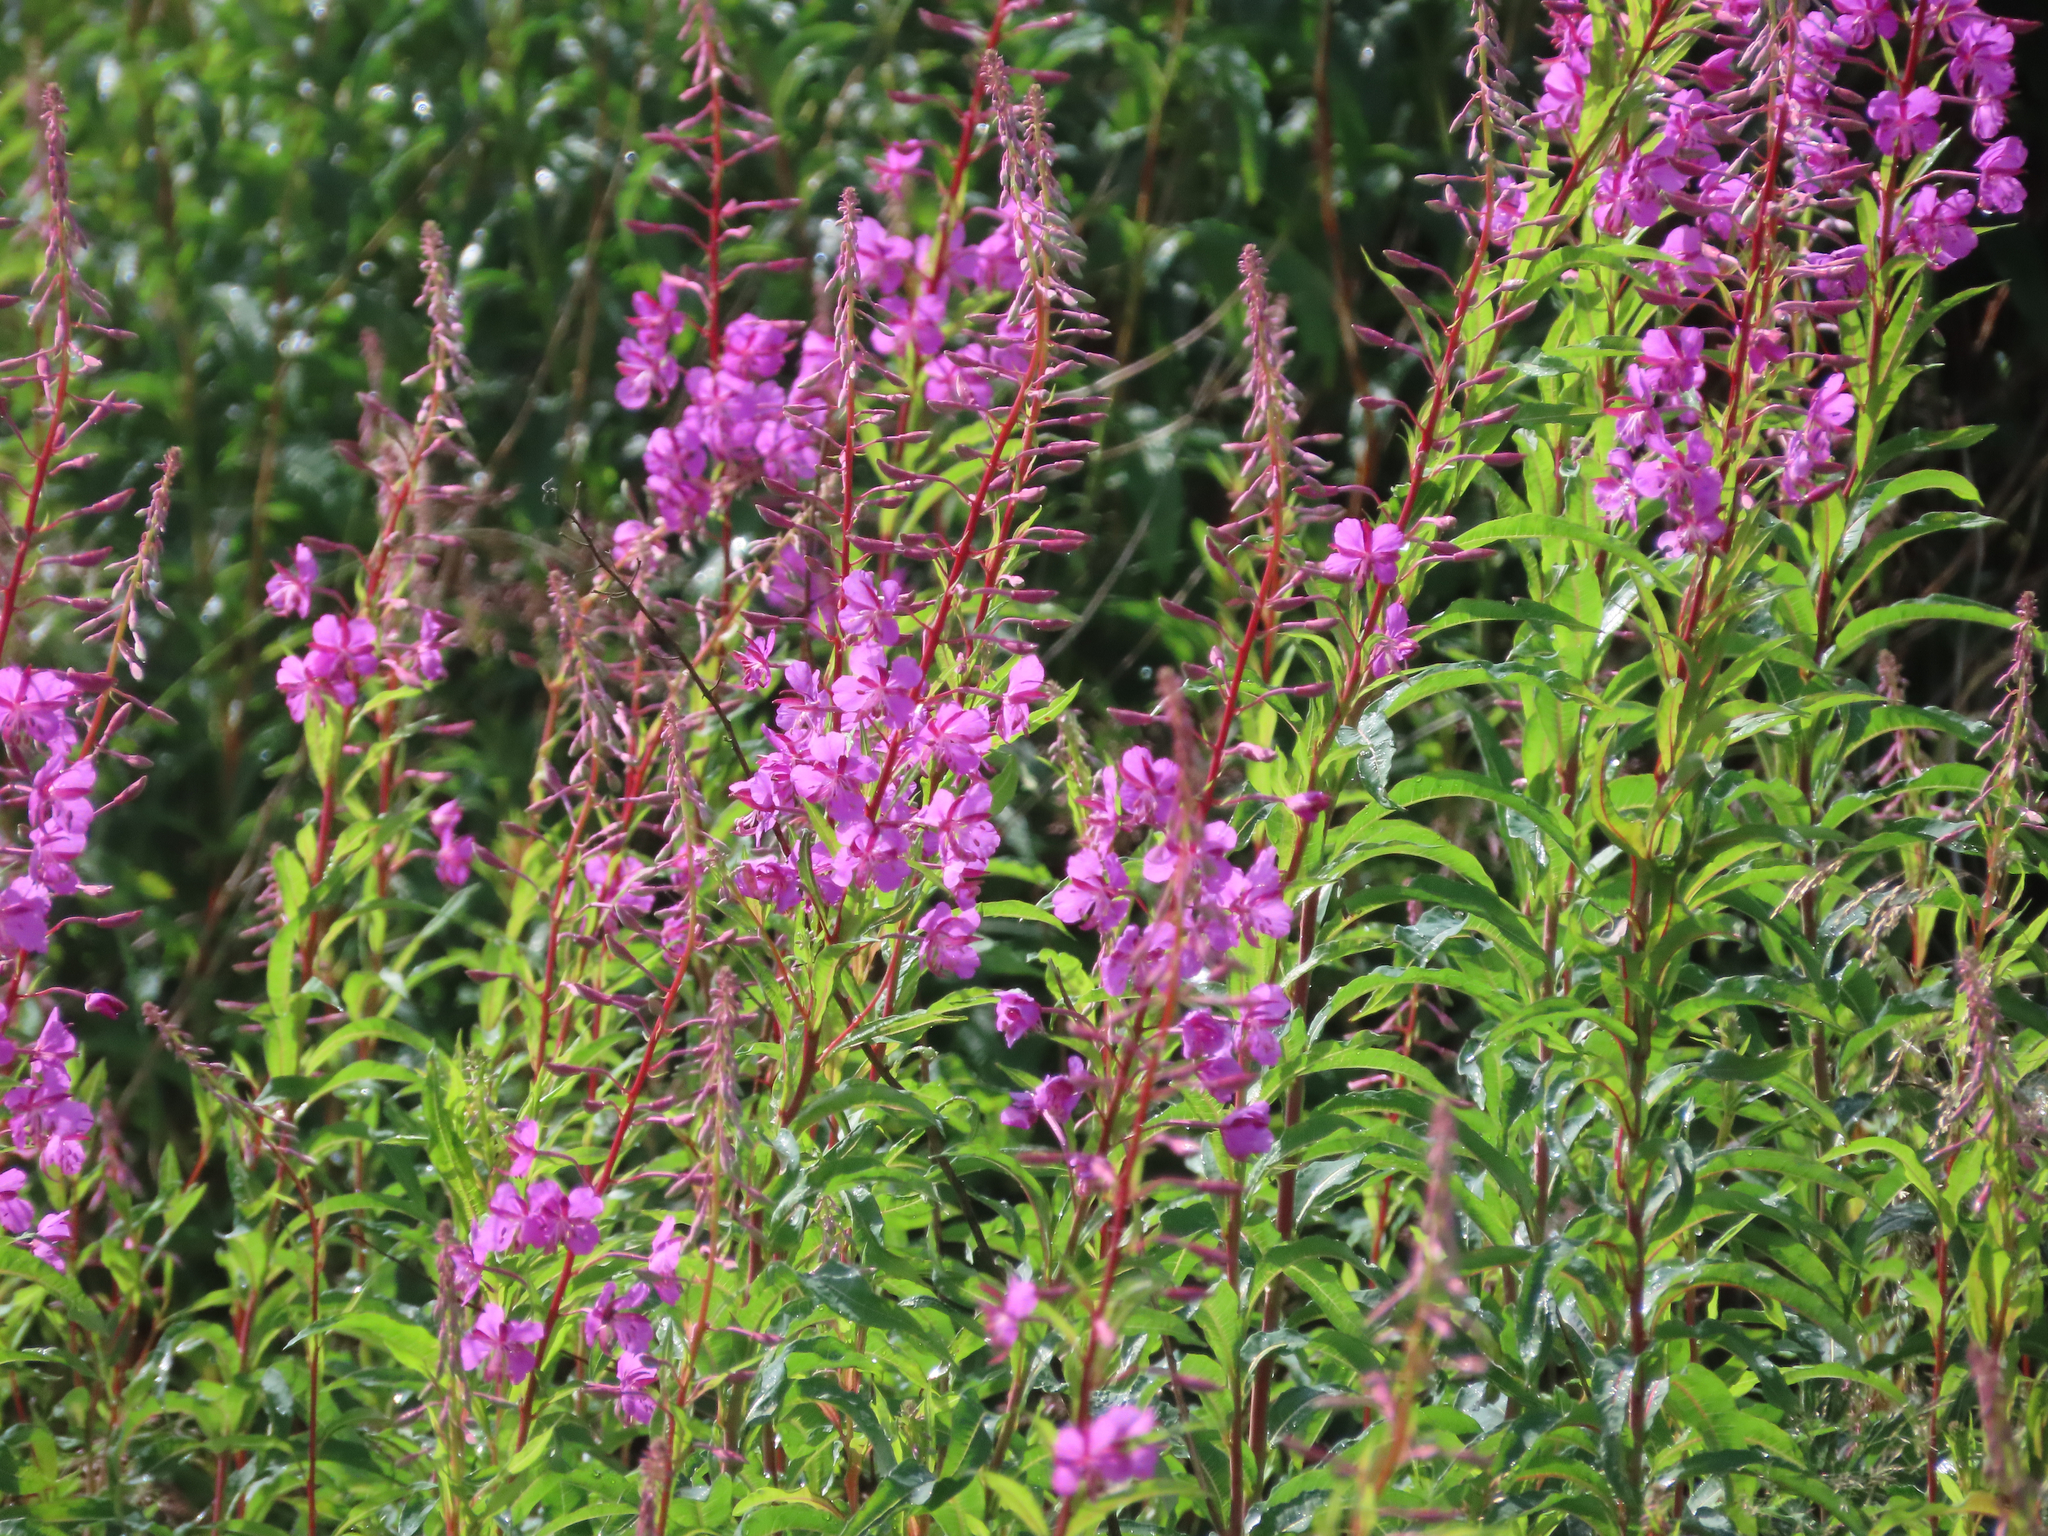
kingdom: Plantae
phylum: Tracheophyta
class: Magnoliopsida
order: Myrtales
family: Onagraceae
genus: Chamaenerion
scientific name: Chamaenerion angustifolium
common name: Fireweed
